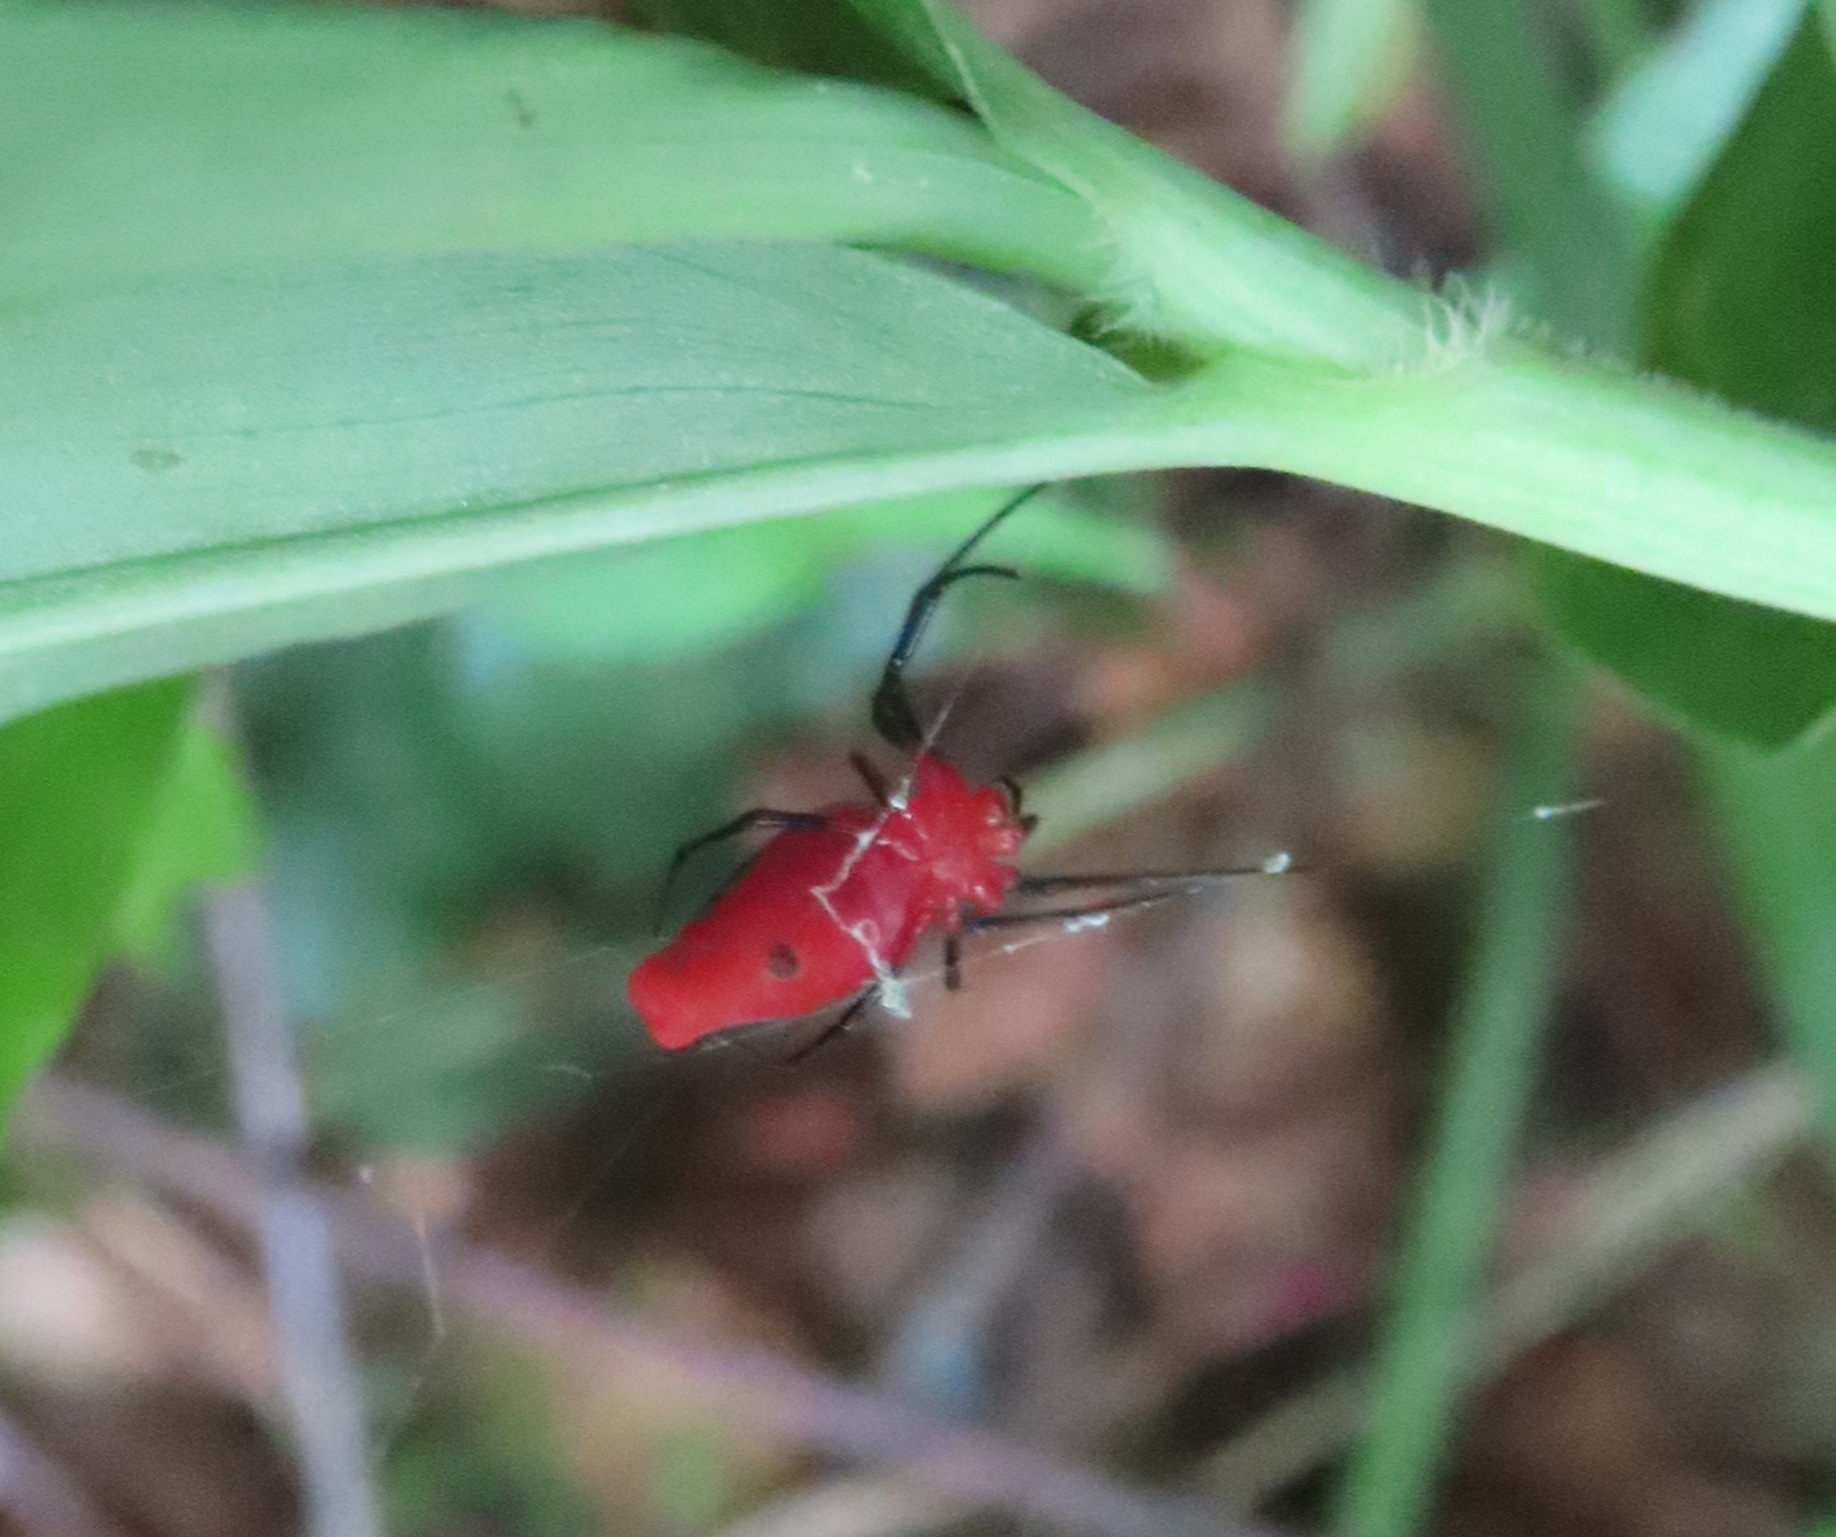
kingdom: Animalia
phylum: Arthropoda
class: Arachnida
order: Araneae
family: Tetragnathidae
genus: Leucauge
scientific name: Leucauge licina
